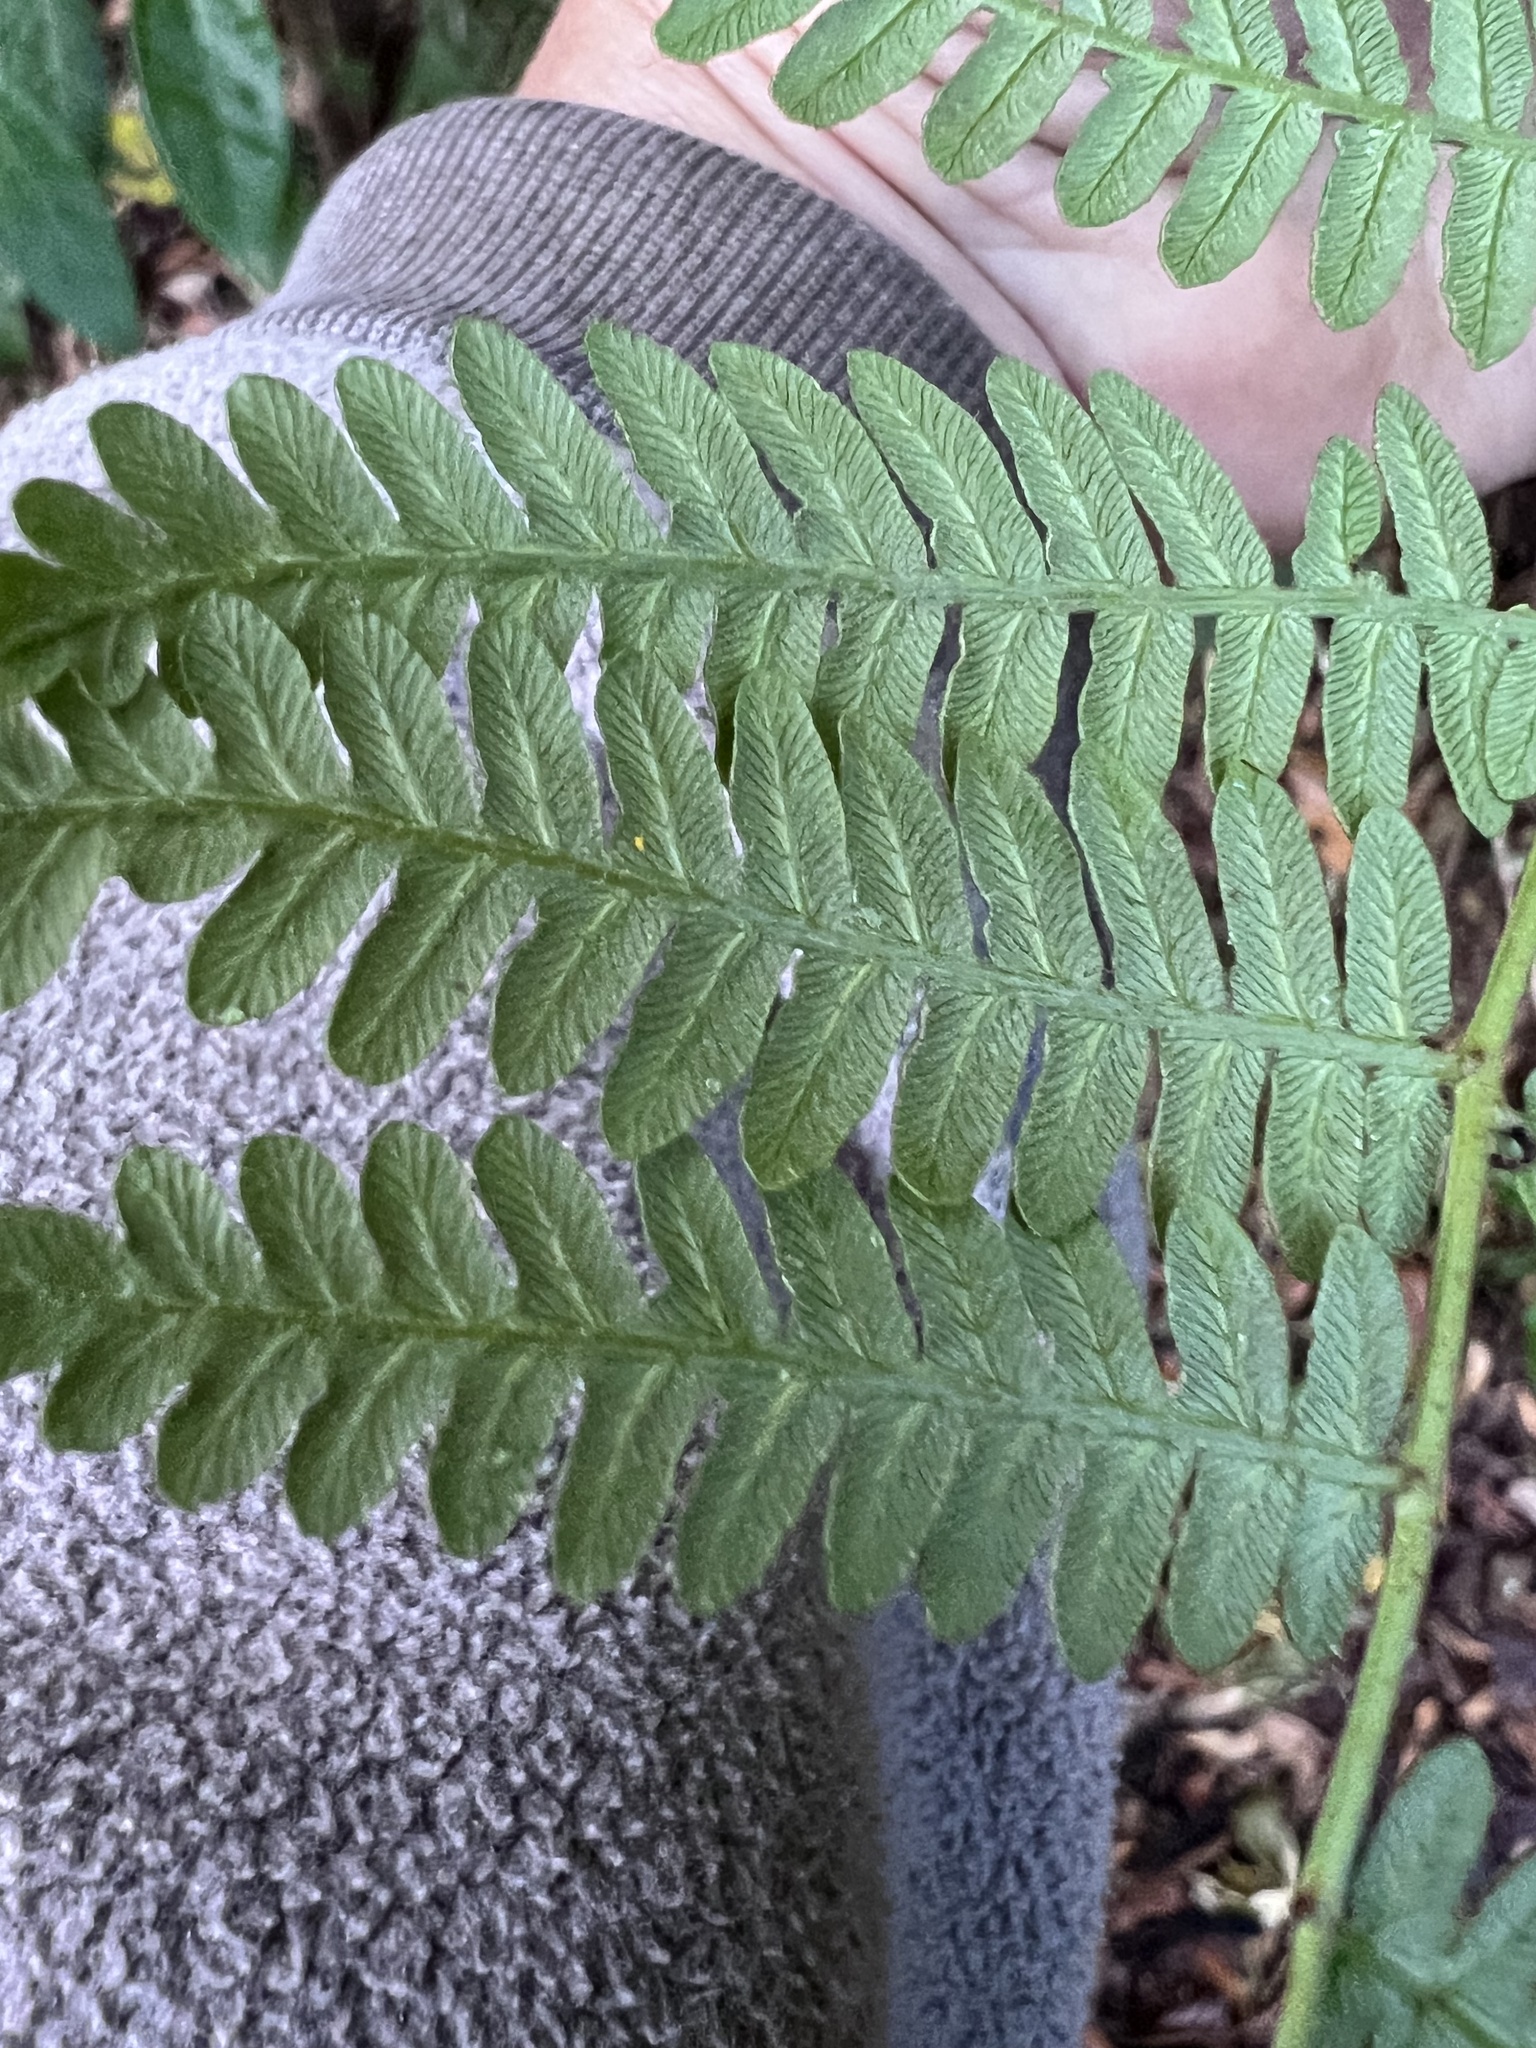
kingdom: Plantae
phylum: Tracheophyta
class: Polypodiopsida
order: Polypodiales
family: Dennstaedtiaceae
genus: Pteridium
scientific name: Pteridium esculentum
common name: Bracken fern
